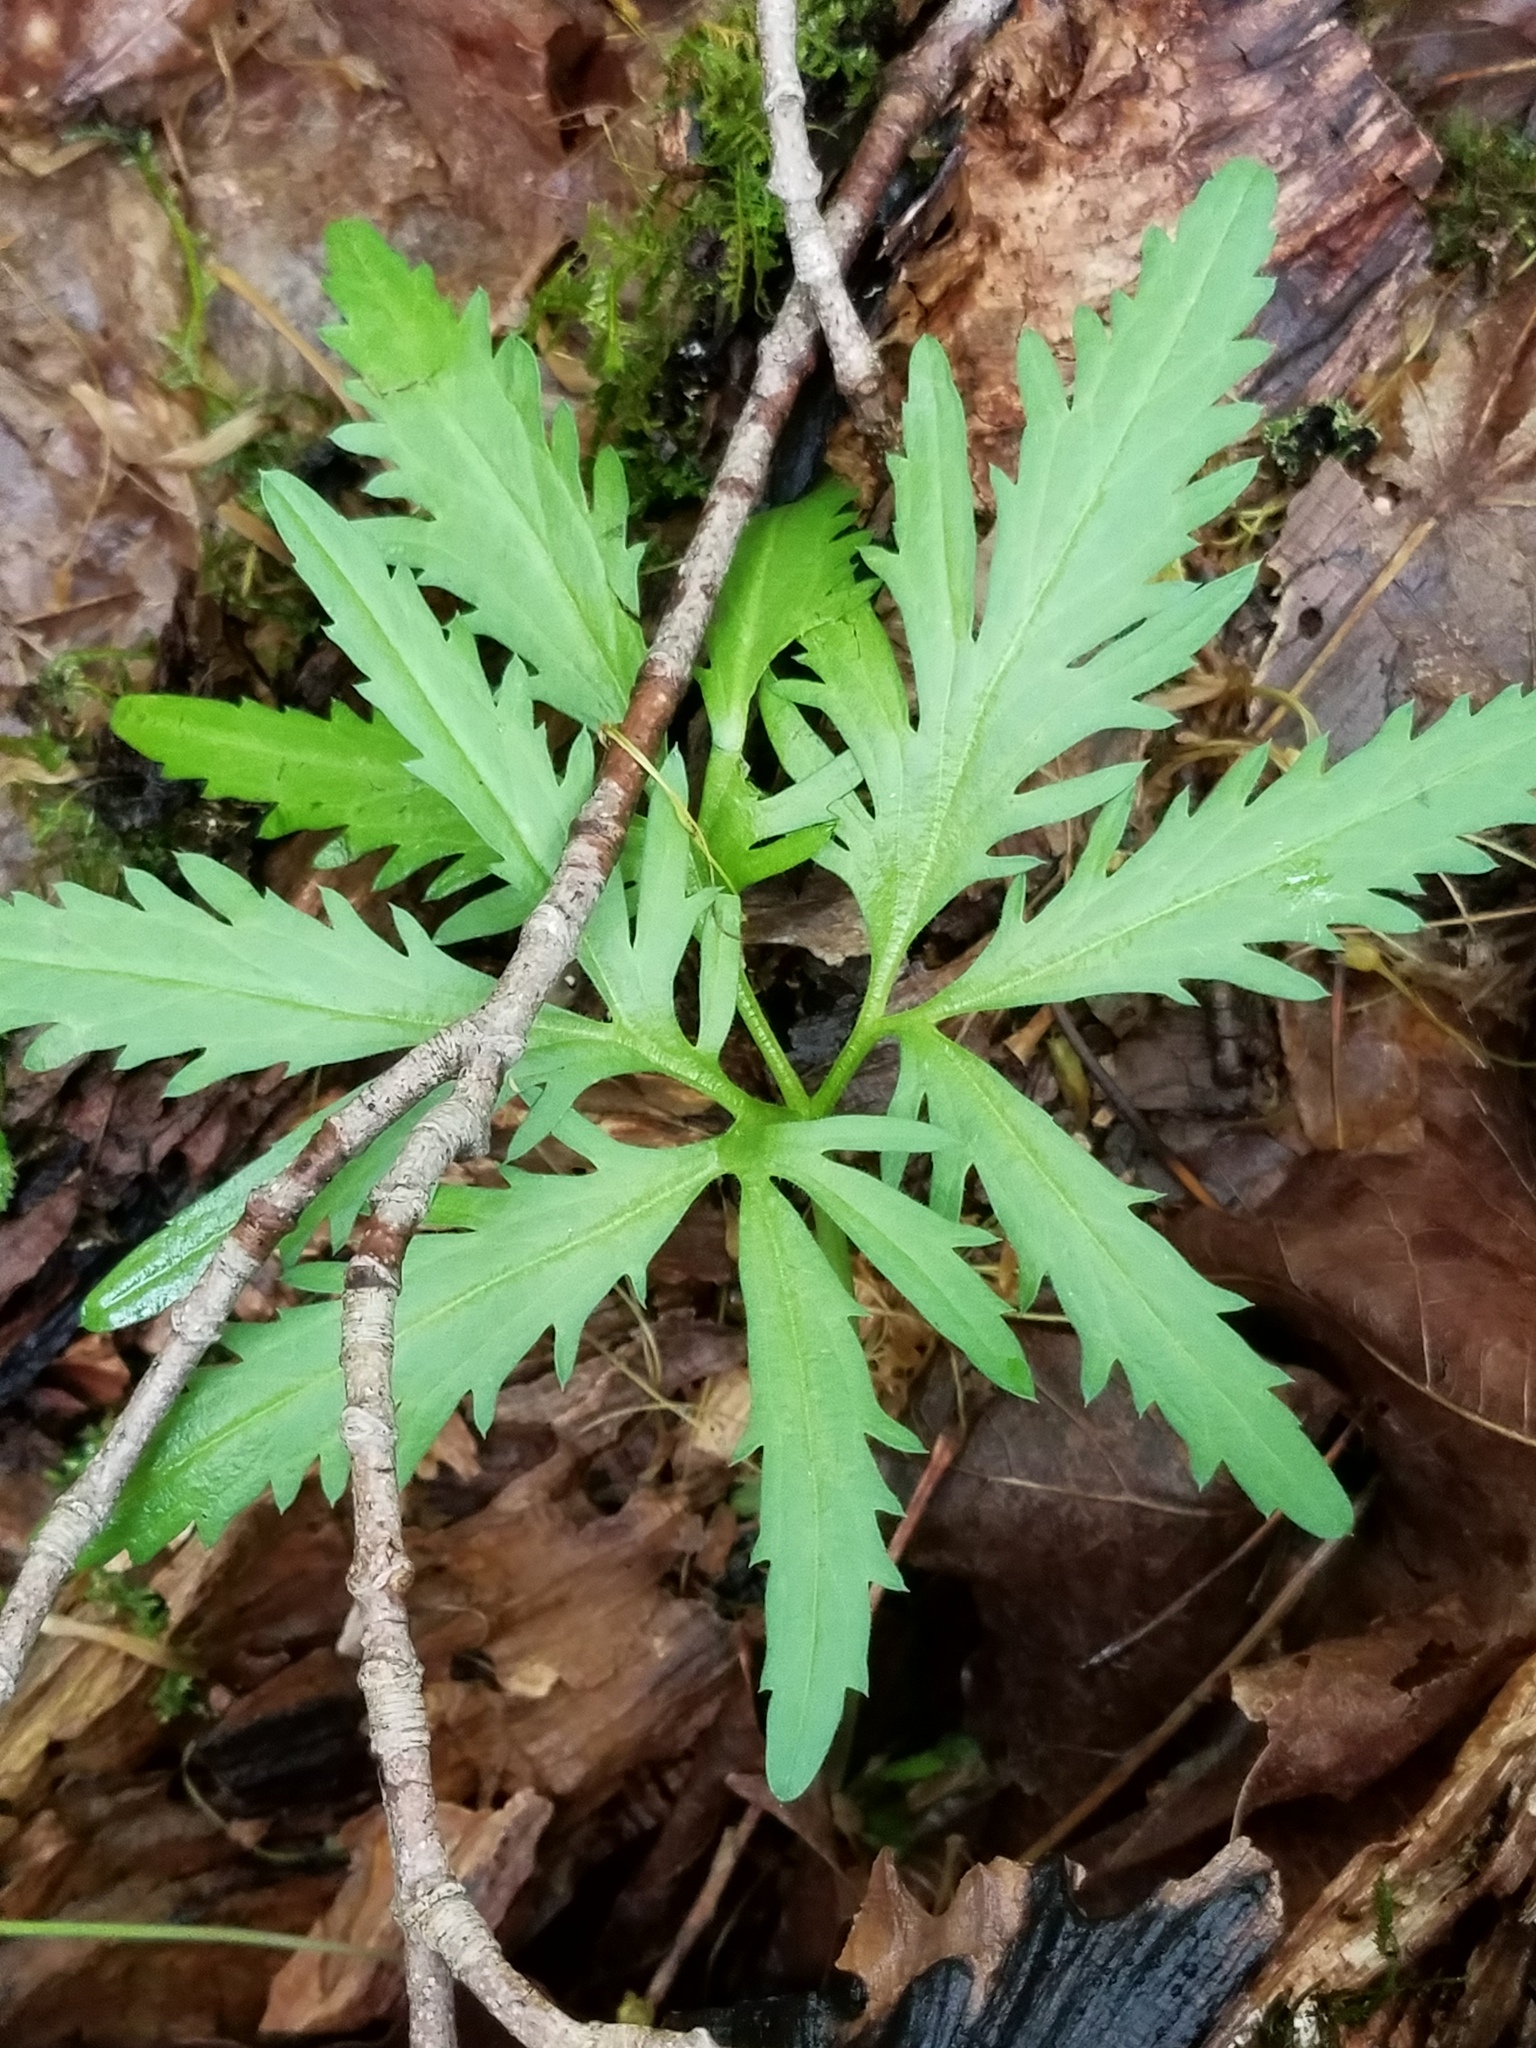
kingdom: Plantae
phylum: Tracheophyta
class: Magnoliopsida
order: Brassicales
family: Brassicaceae
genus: Cardamine
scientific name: Cardamine concatenata
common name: Cut-leaf toothcup
